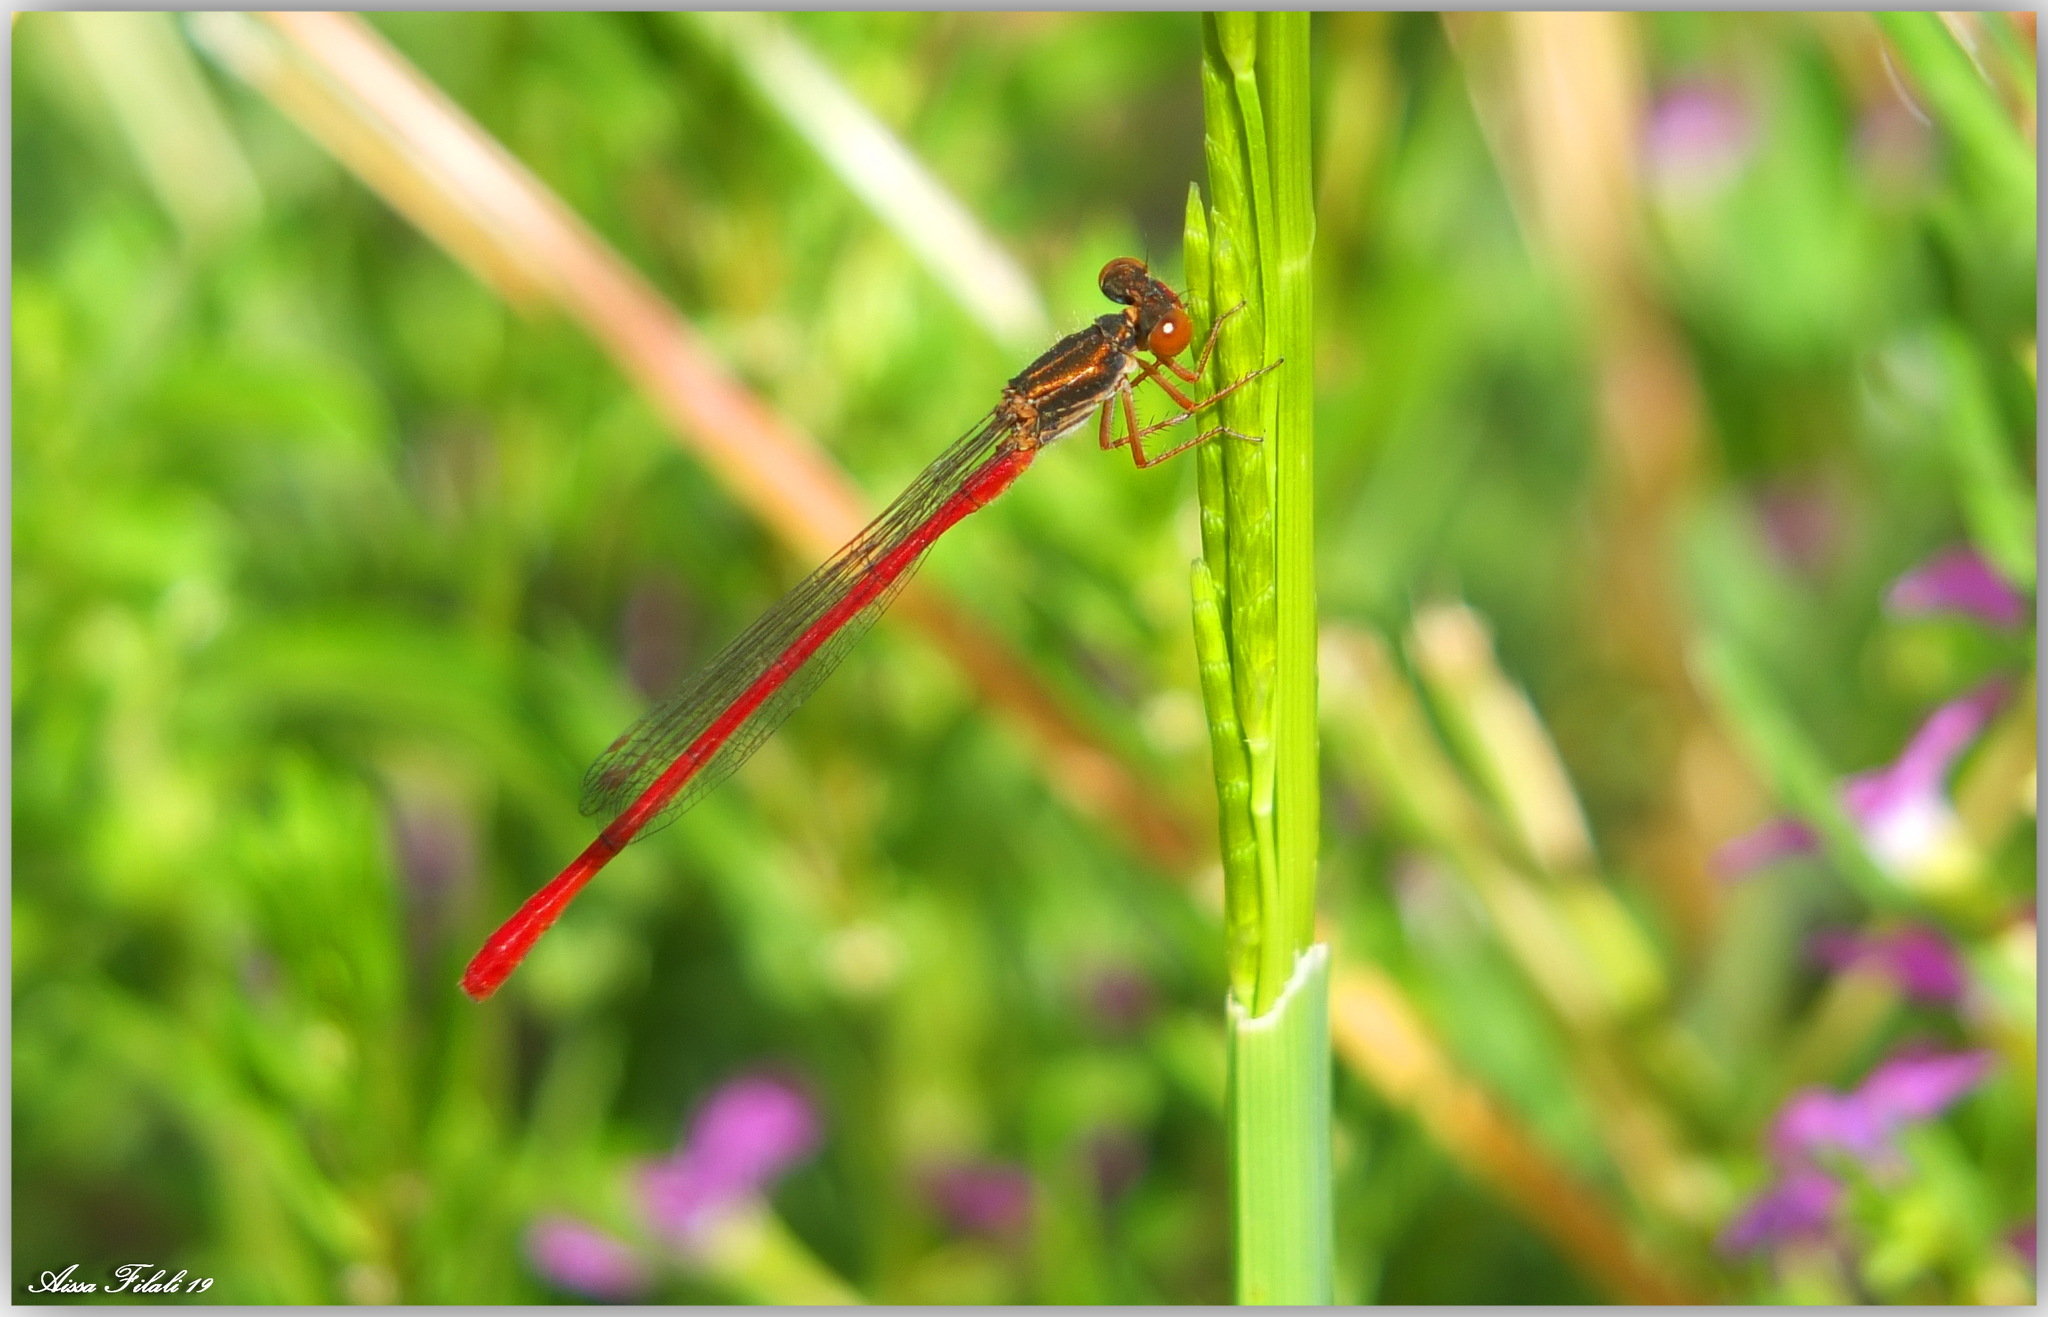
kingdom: Animalia
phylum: Arthropoda
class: Insecta
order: Odonata
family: Coenagrionidae
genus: Ceriagrion
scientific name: Ceriagrion tenellum
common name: Small red damselfly
